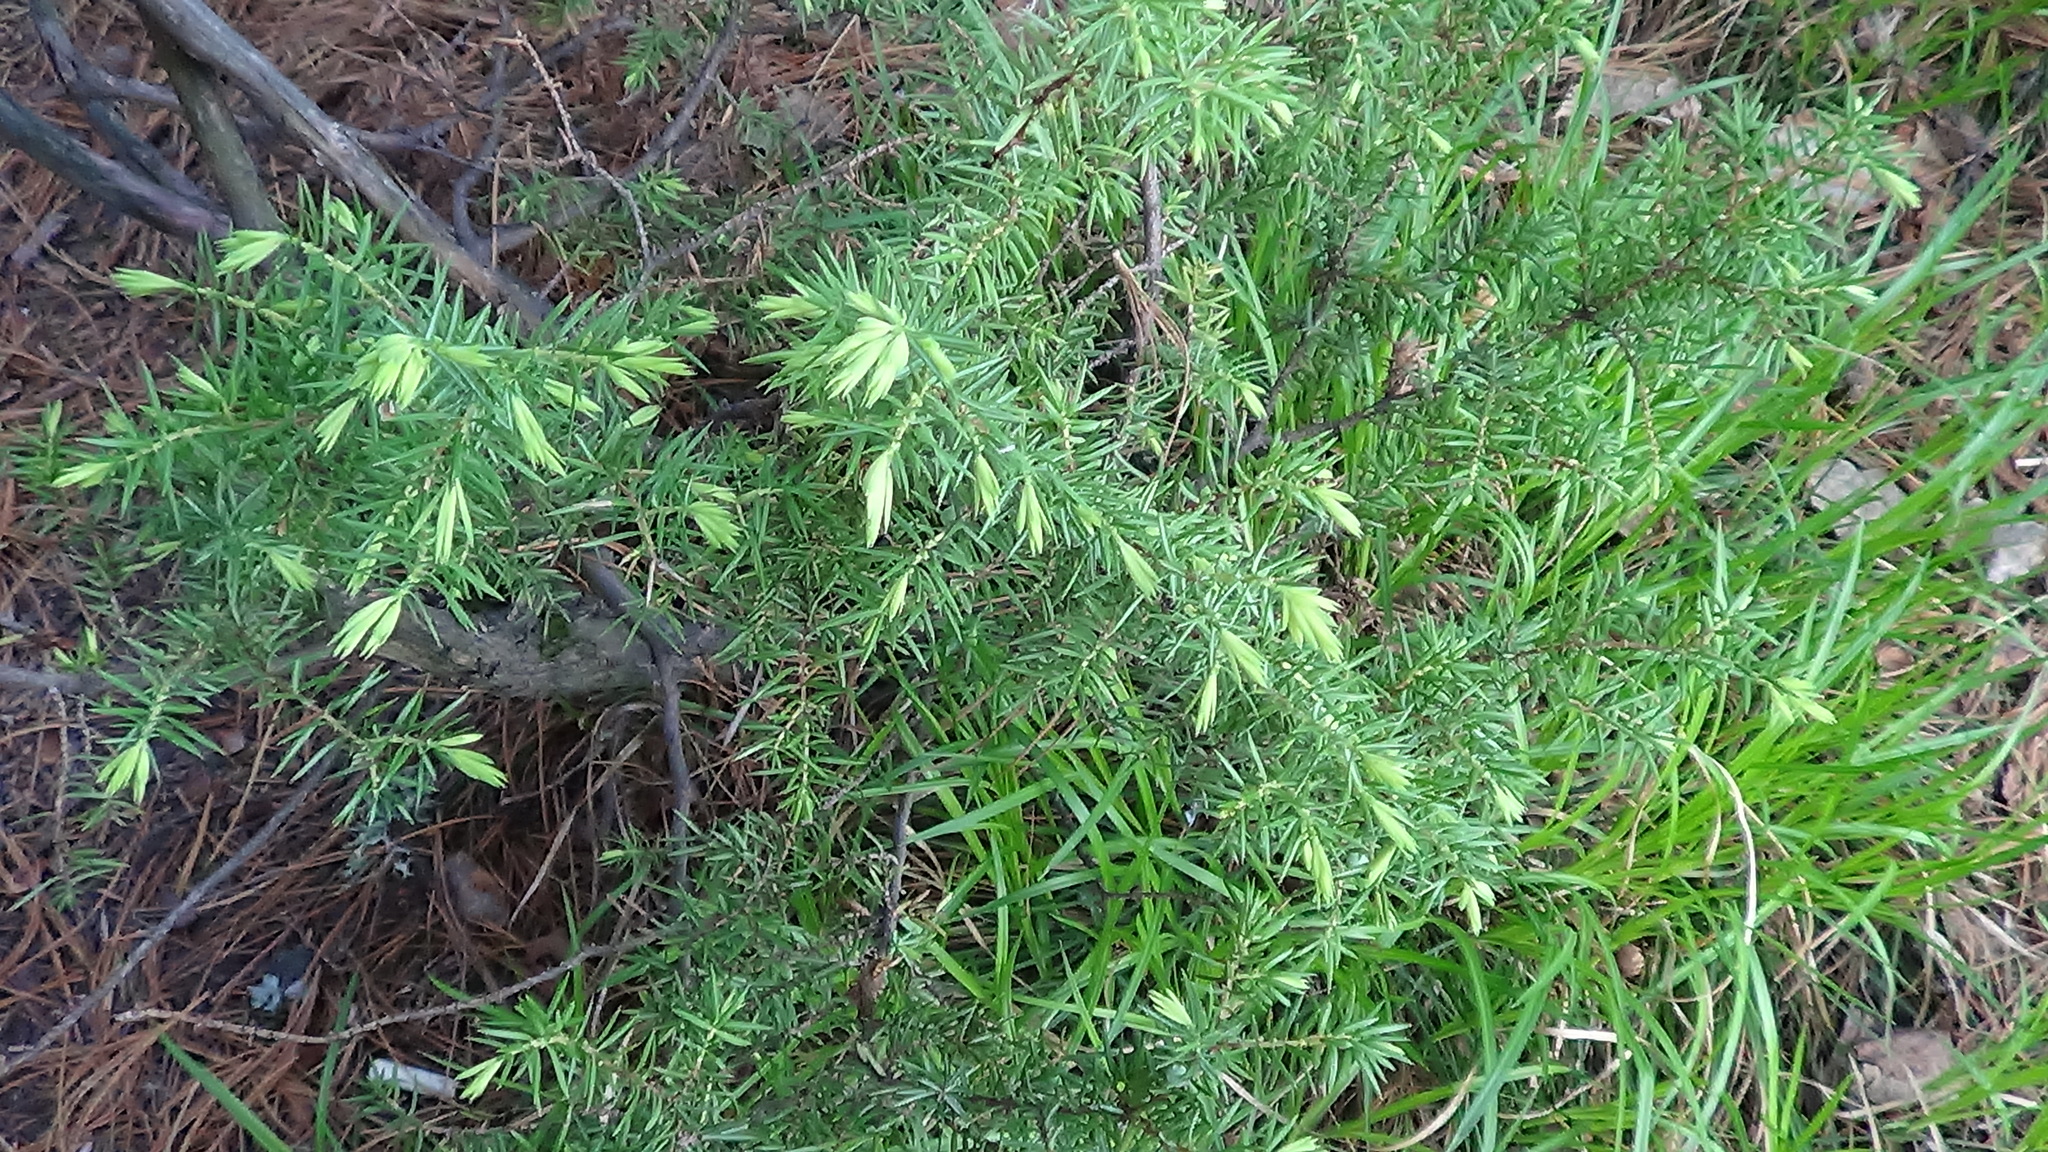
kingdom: Plantae
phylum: Tracheophyta
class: Pinopsida
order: Pinales
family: Cupressaceae
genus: Juniperus
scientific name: Juniperus communis
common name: Common juniper
